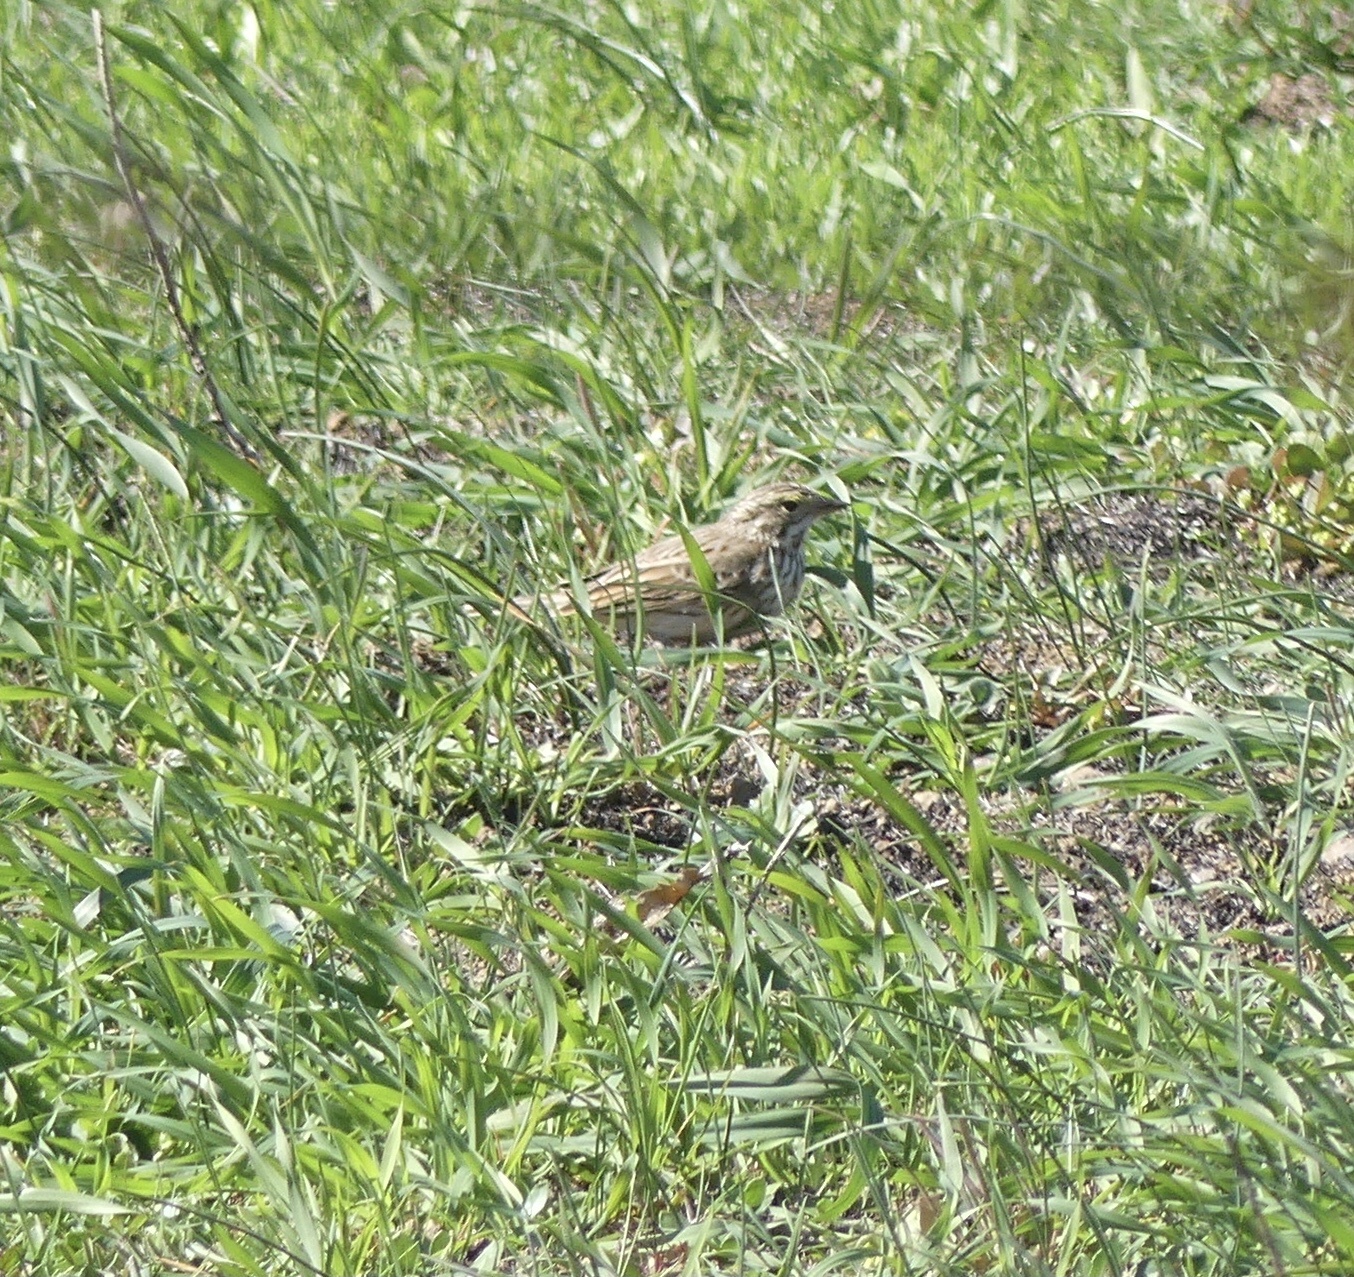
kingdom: Animalia
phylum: Chordata
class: Aves
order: Passeriformes
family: Passerellidae
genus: Passerculus
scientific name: Passerculus sandwichensis
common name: Savannah sparrow
